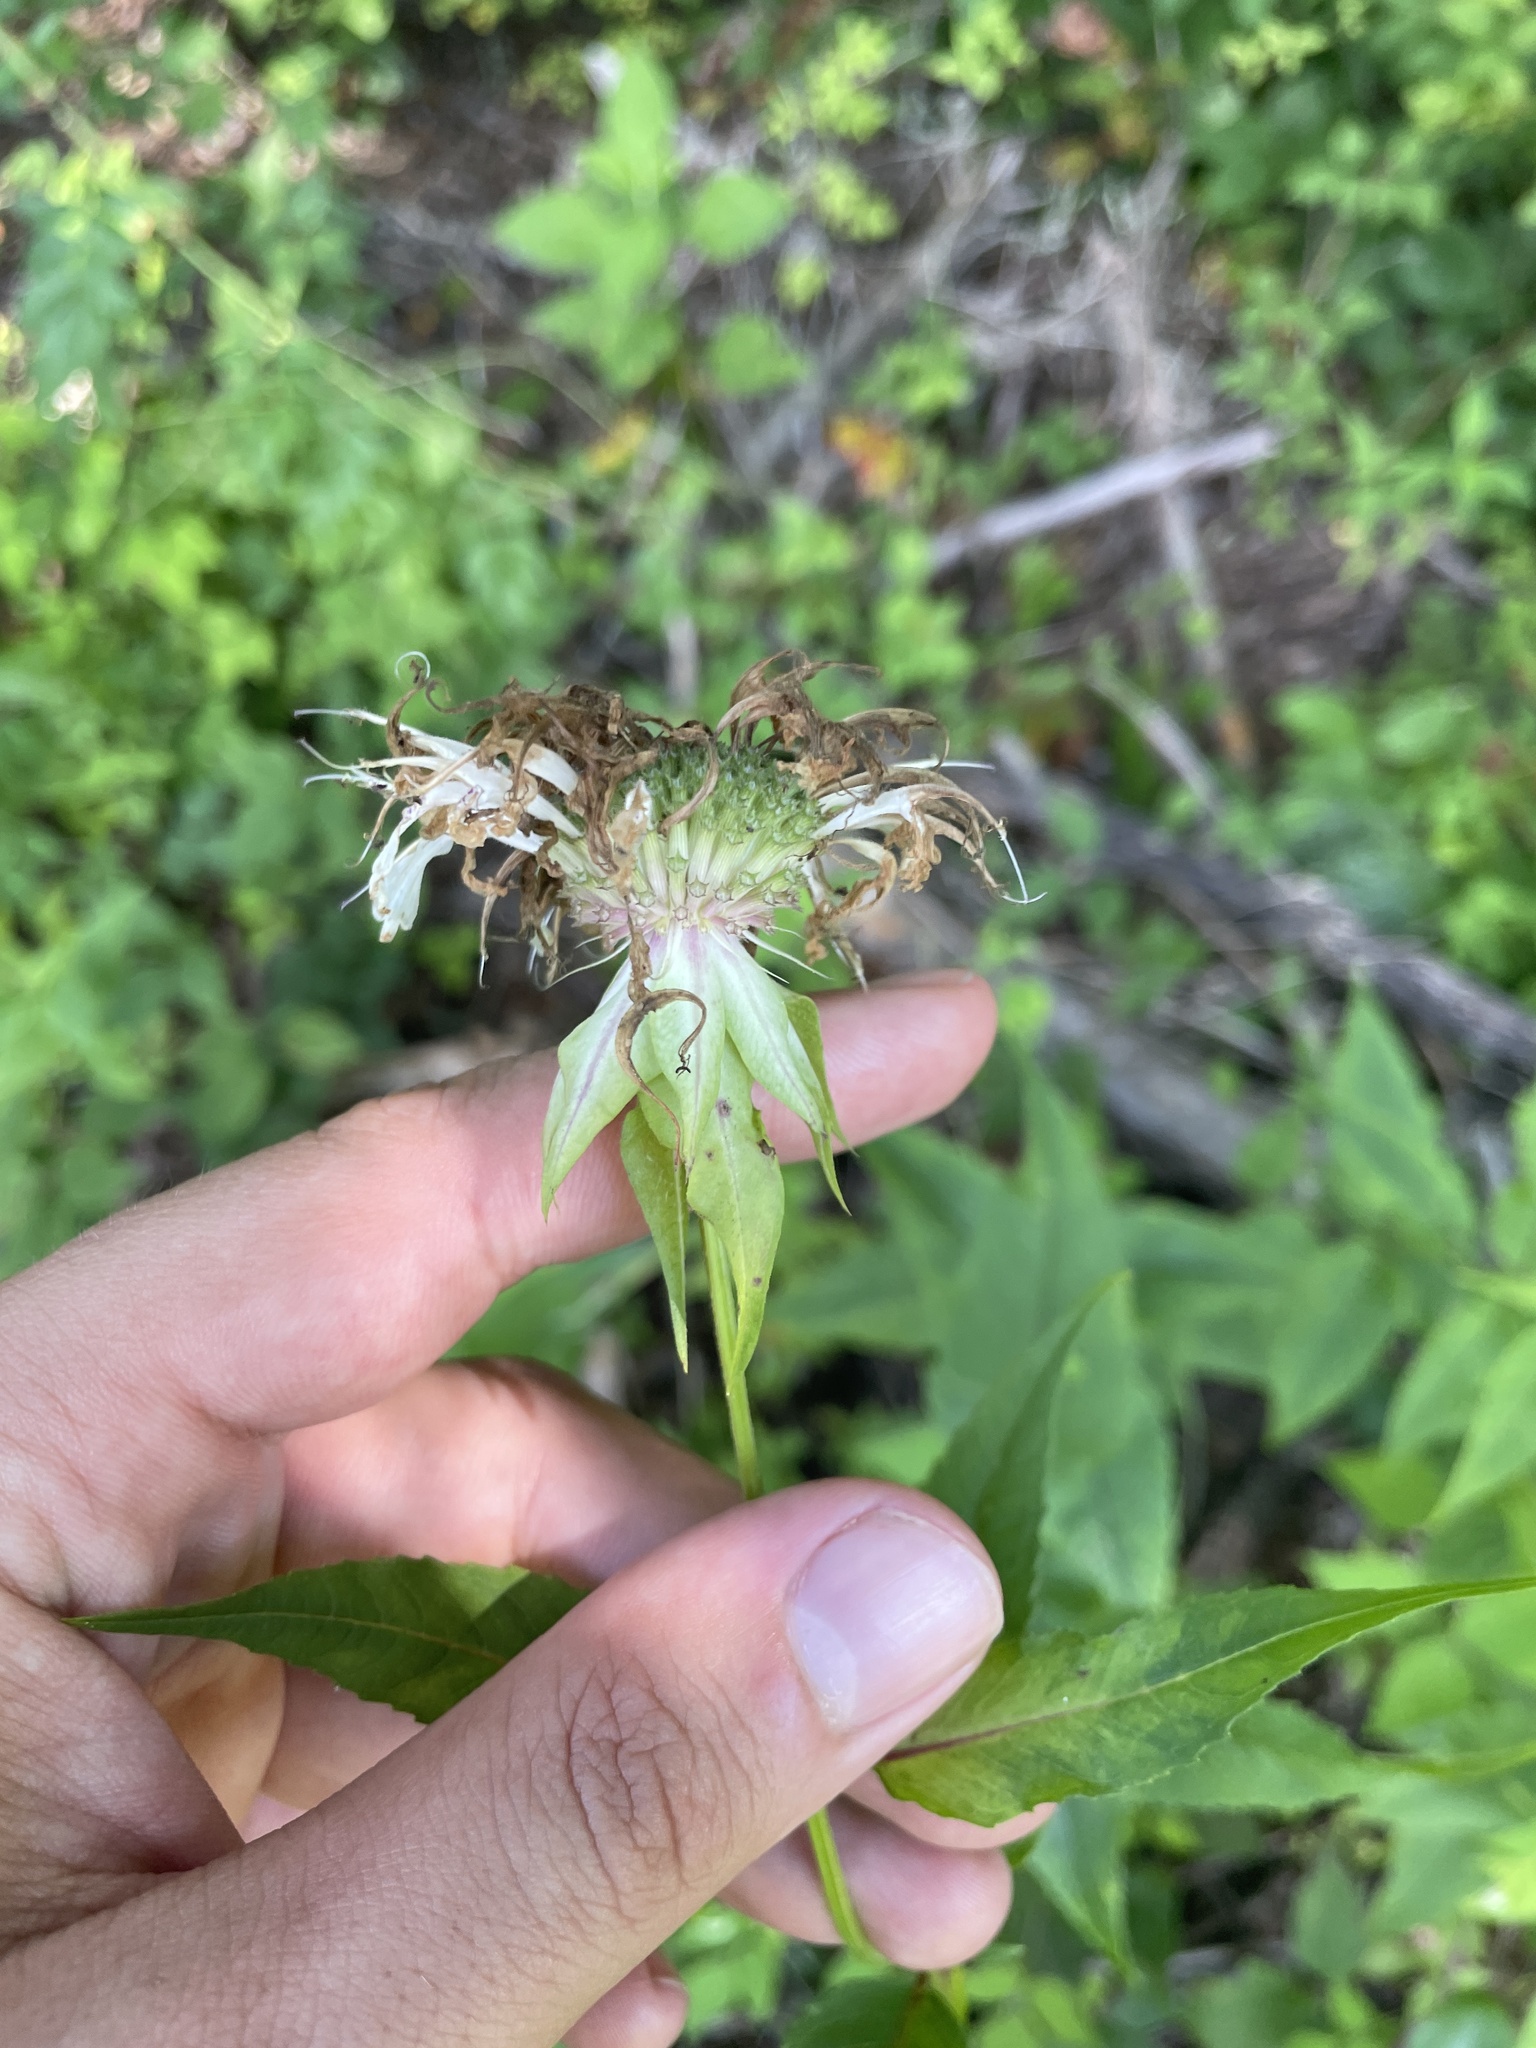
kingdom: Plantae
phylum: Tracheophyta
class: Magnoliopsida
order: Lamiales
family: Lamiaceae
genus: Monarda
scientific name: Monarda clinopodia
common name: Basil beebalm
